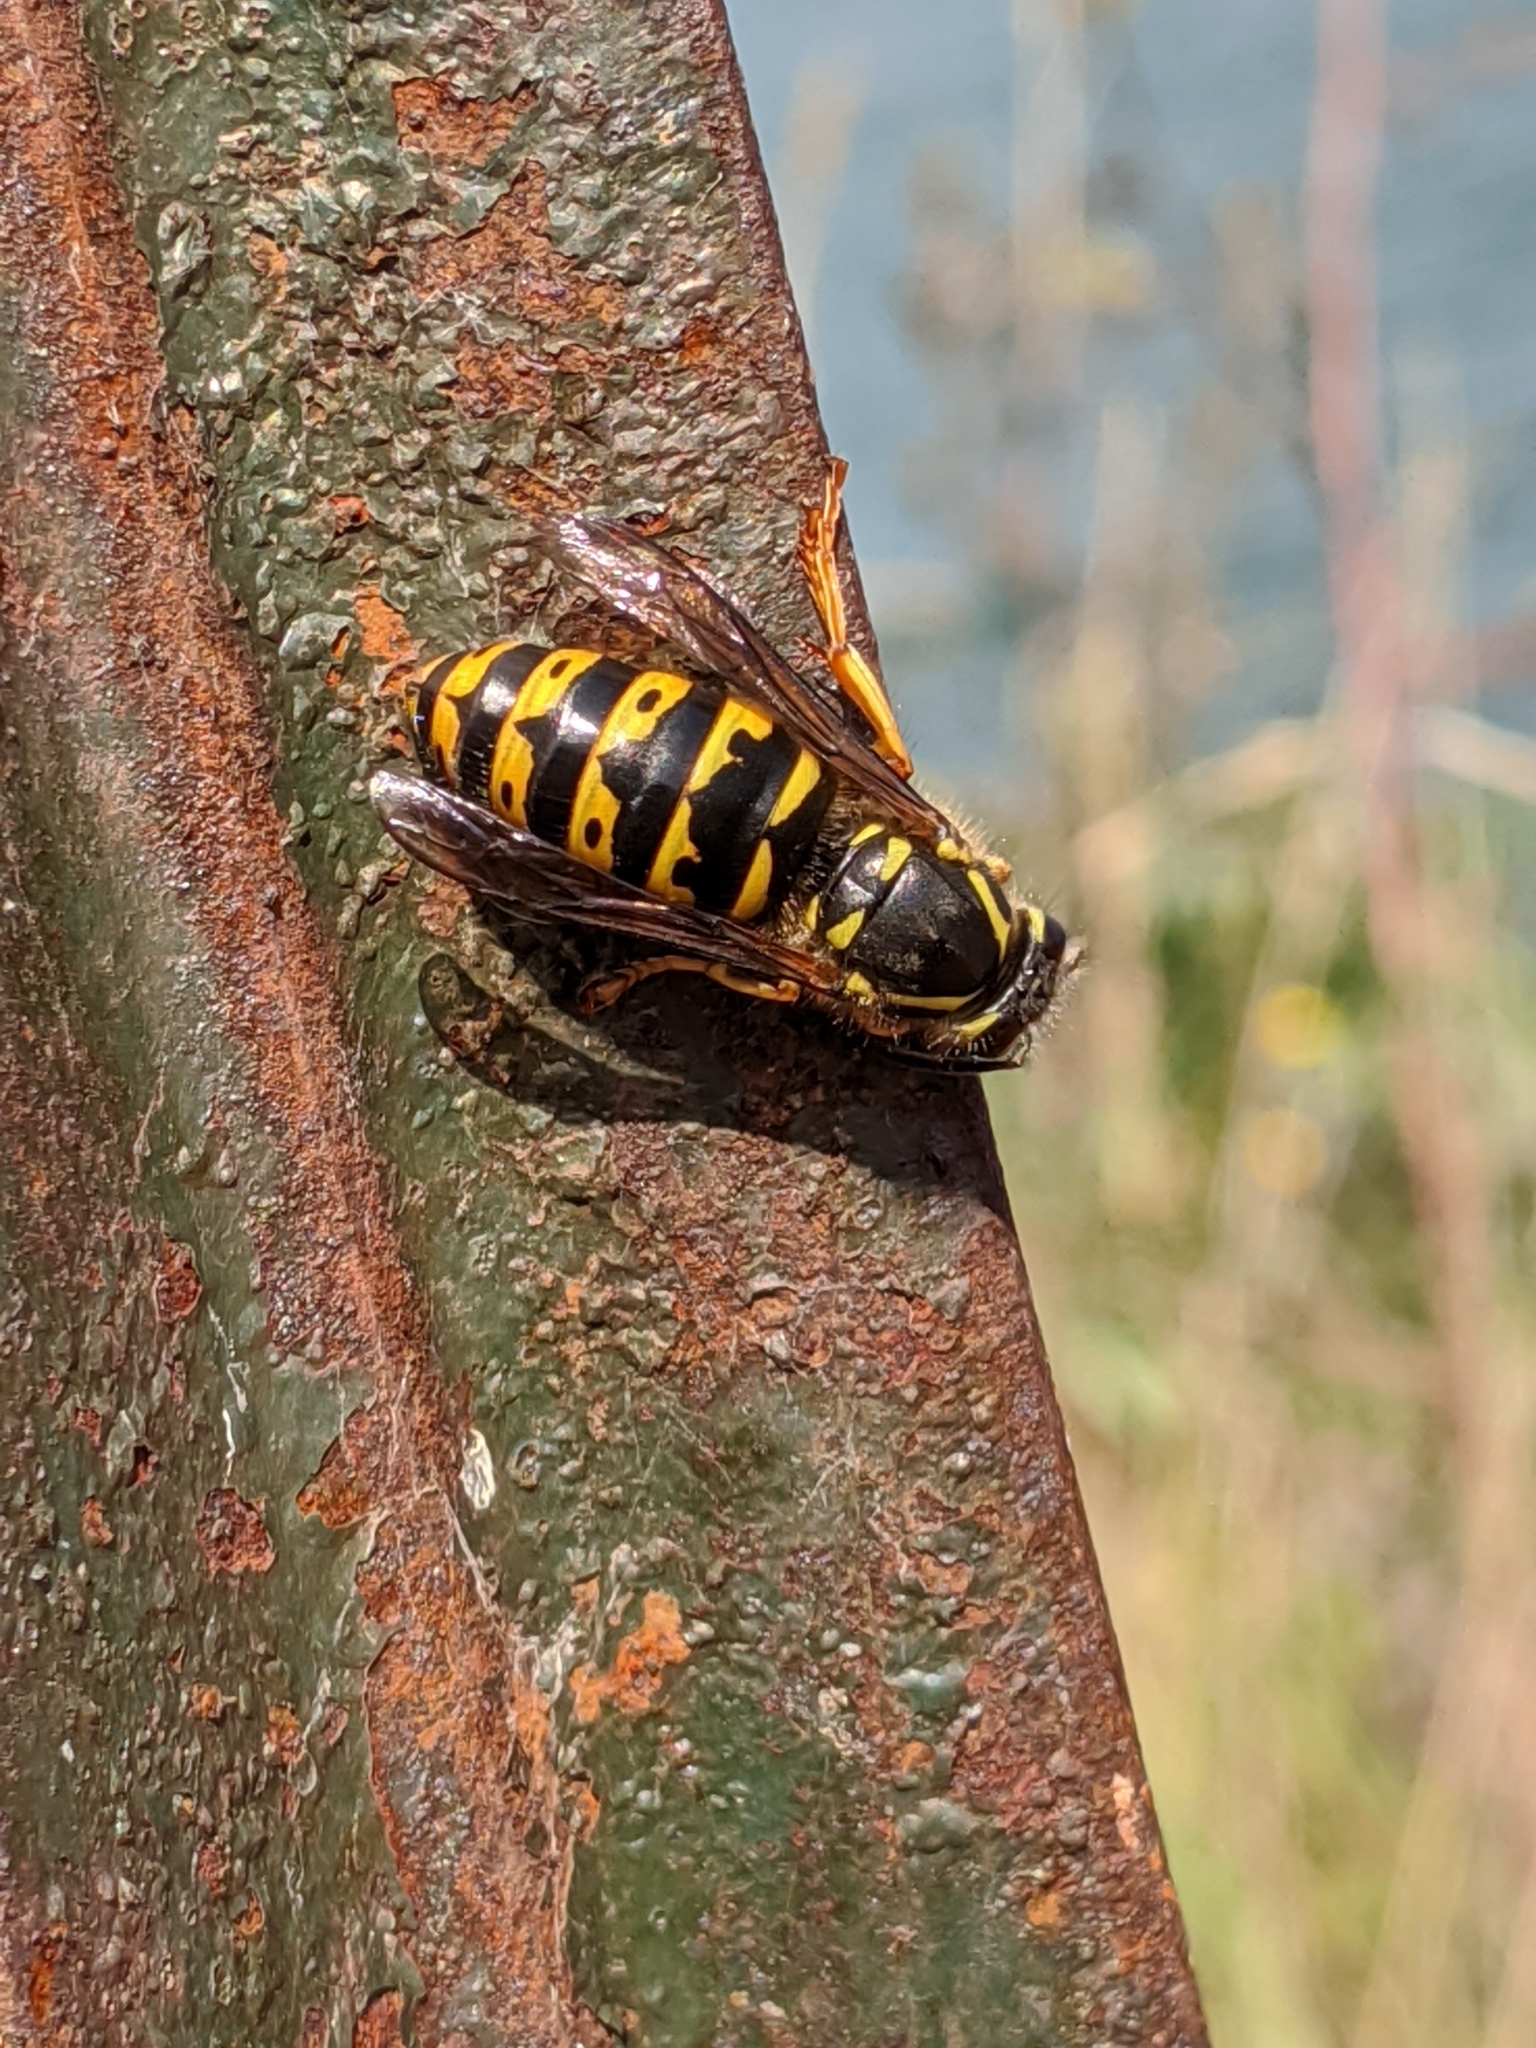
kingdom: Animalia
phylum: Arthropoda
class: Insecta
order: Hymenoptera
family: Vespidae
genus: Dolichovespula
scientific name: Dolichovespula arenaria
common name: Aerial yellowjacket
